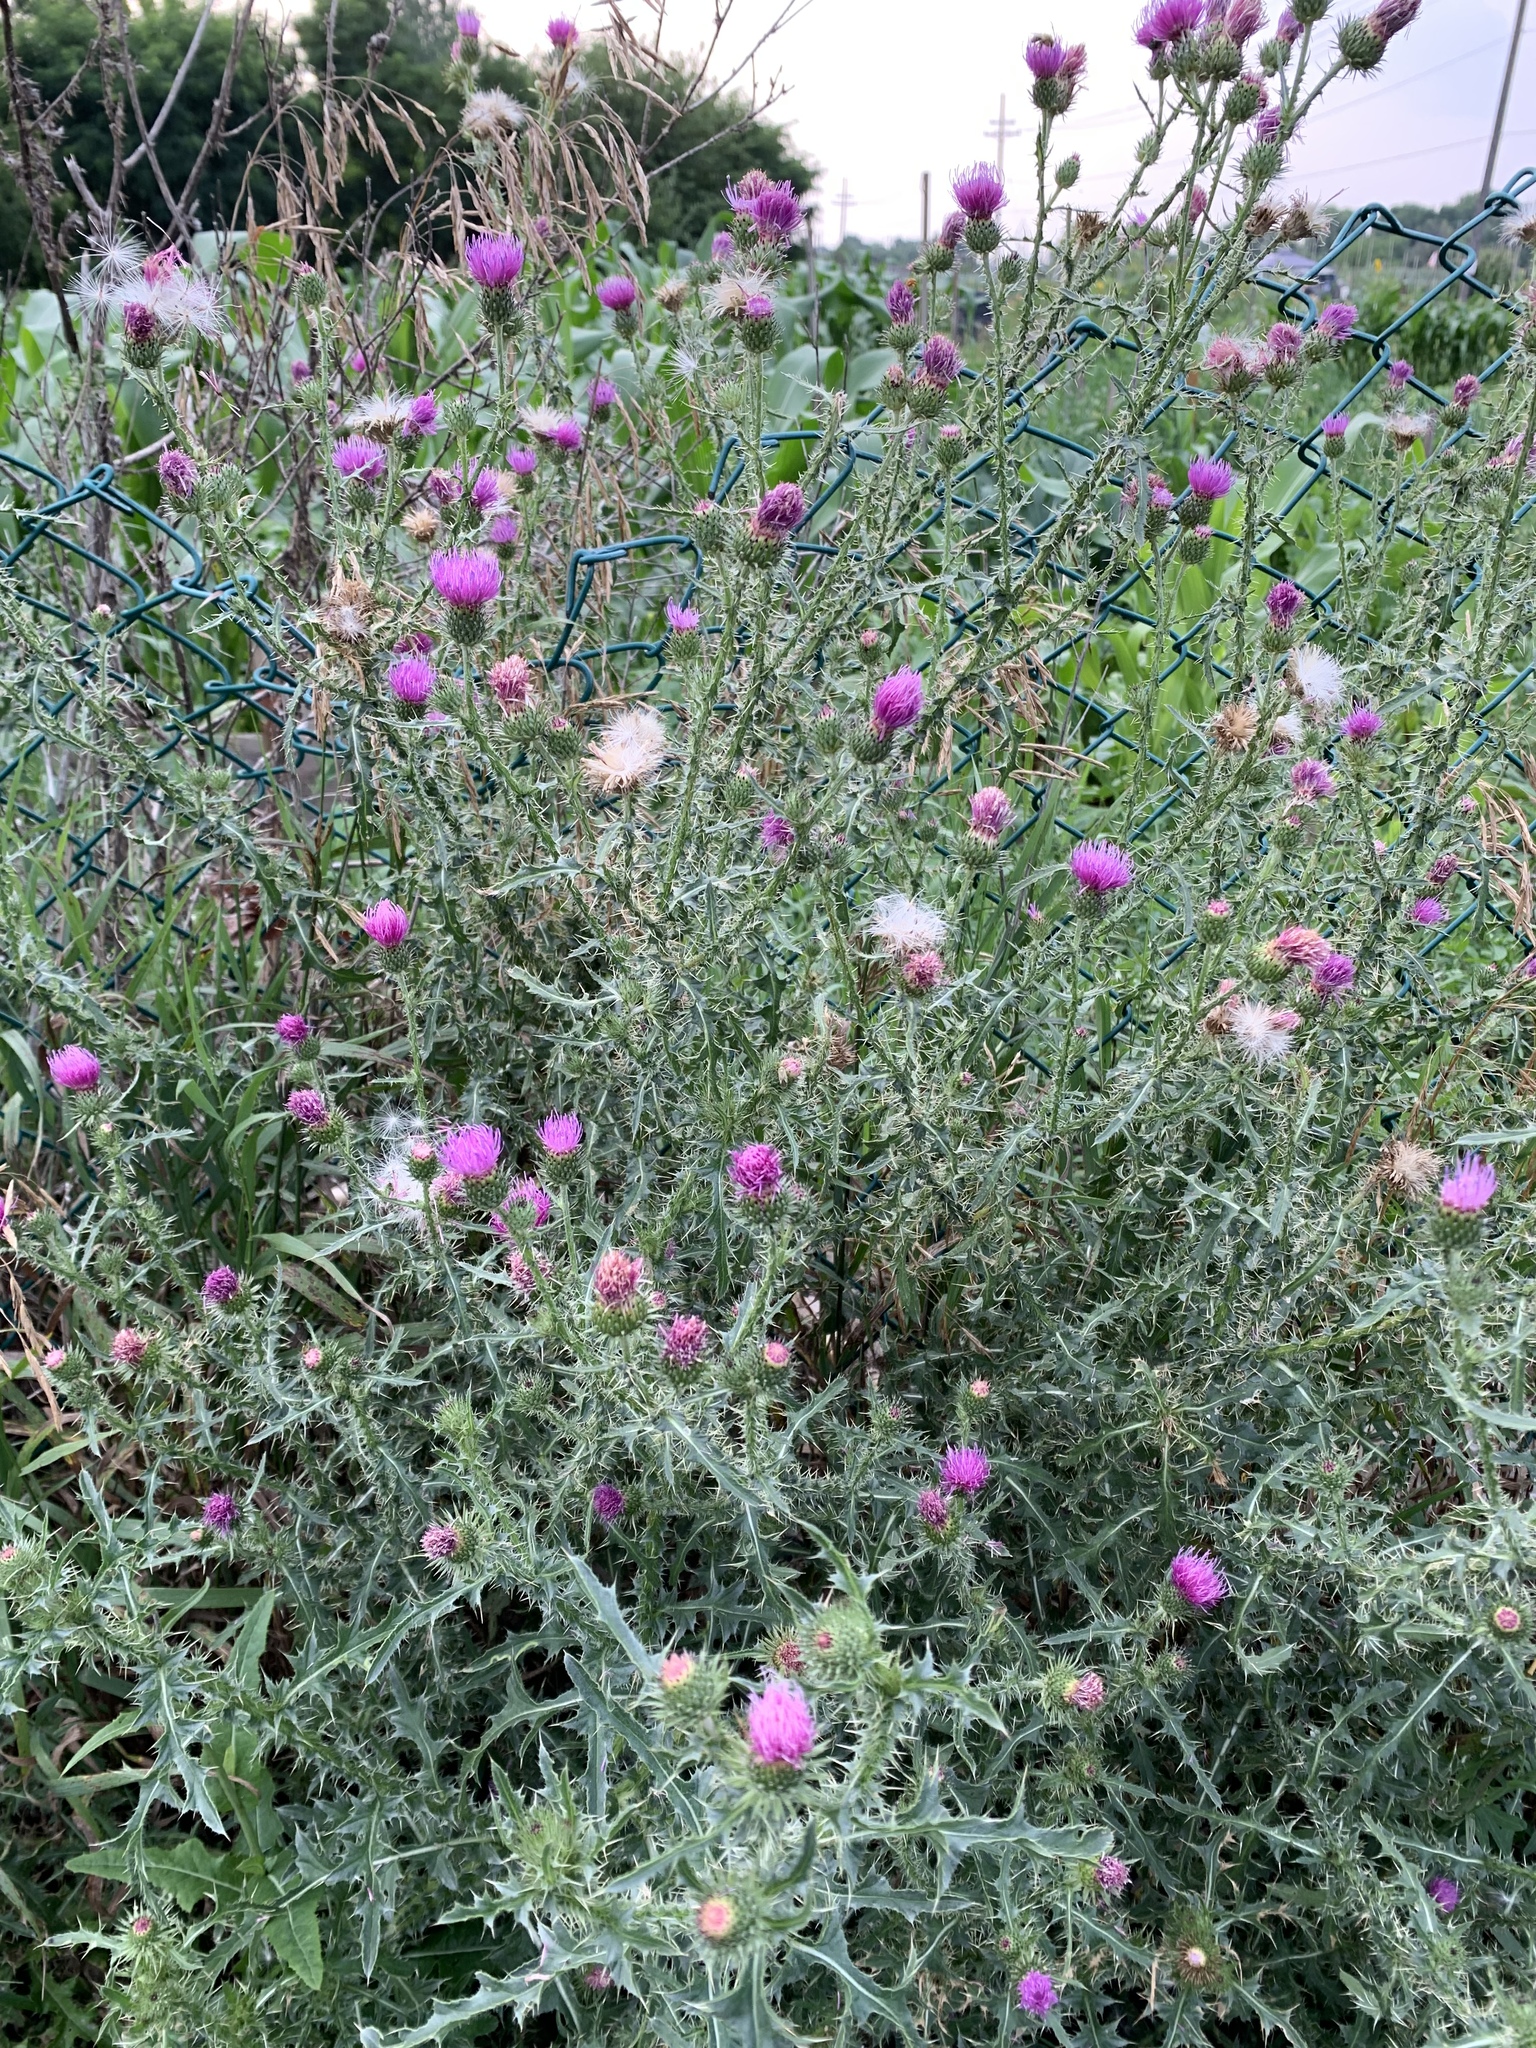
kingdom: Plantae
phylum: Tracheophyta
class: Magnoliopsida
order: Asterales
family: Asteraceae
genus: Carduus
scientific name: Carduus acanthoides
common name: Plumeless thistle
